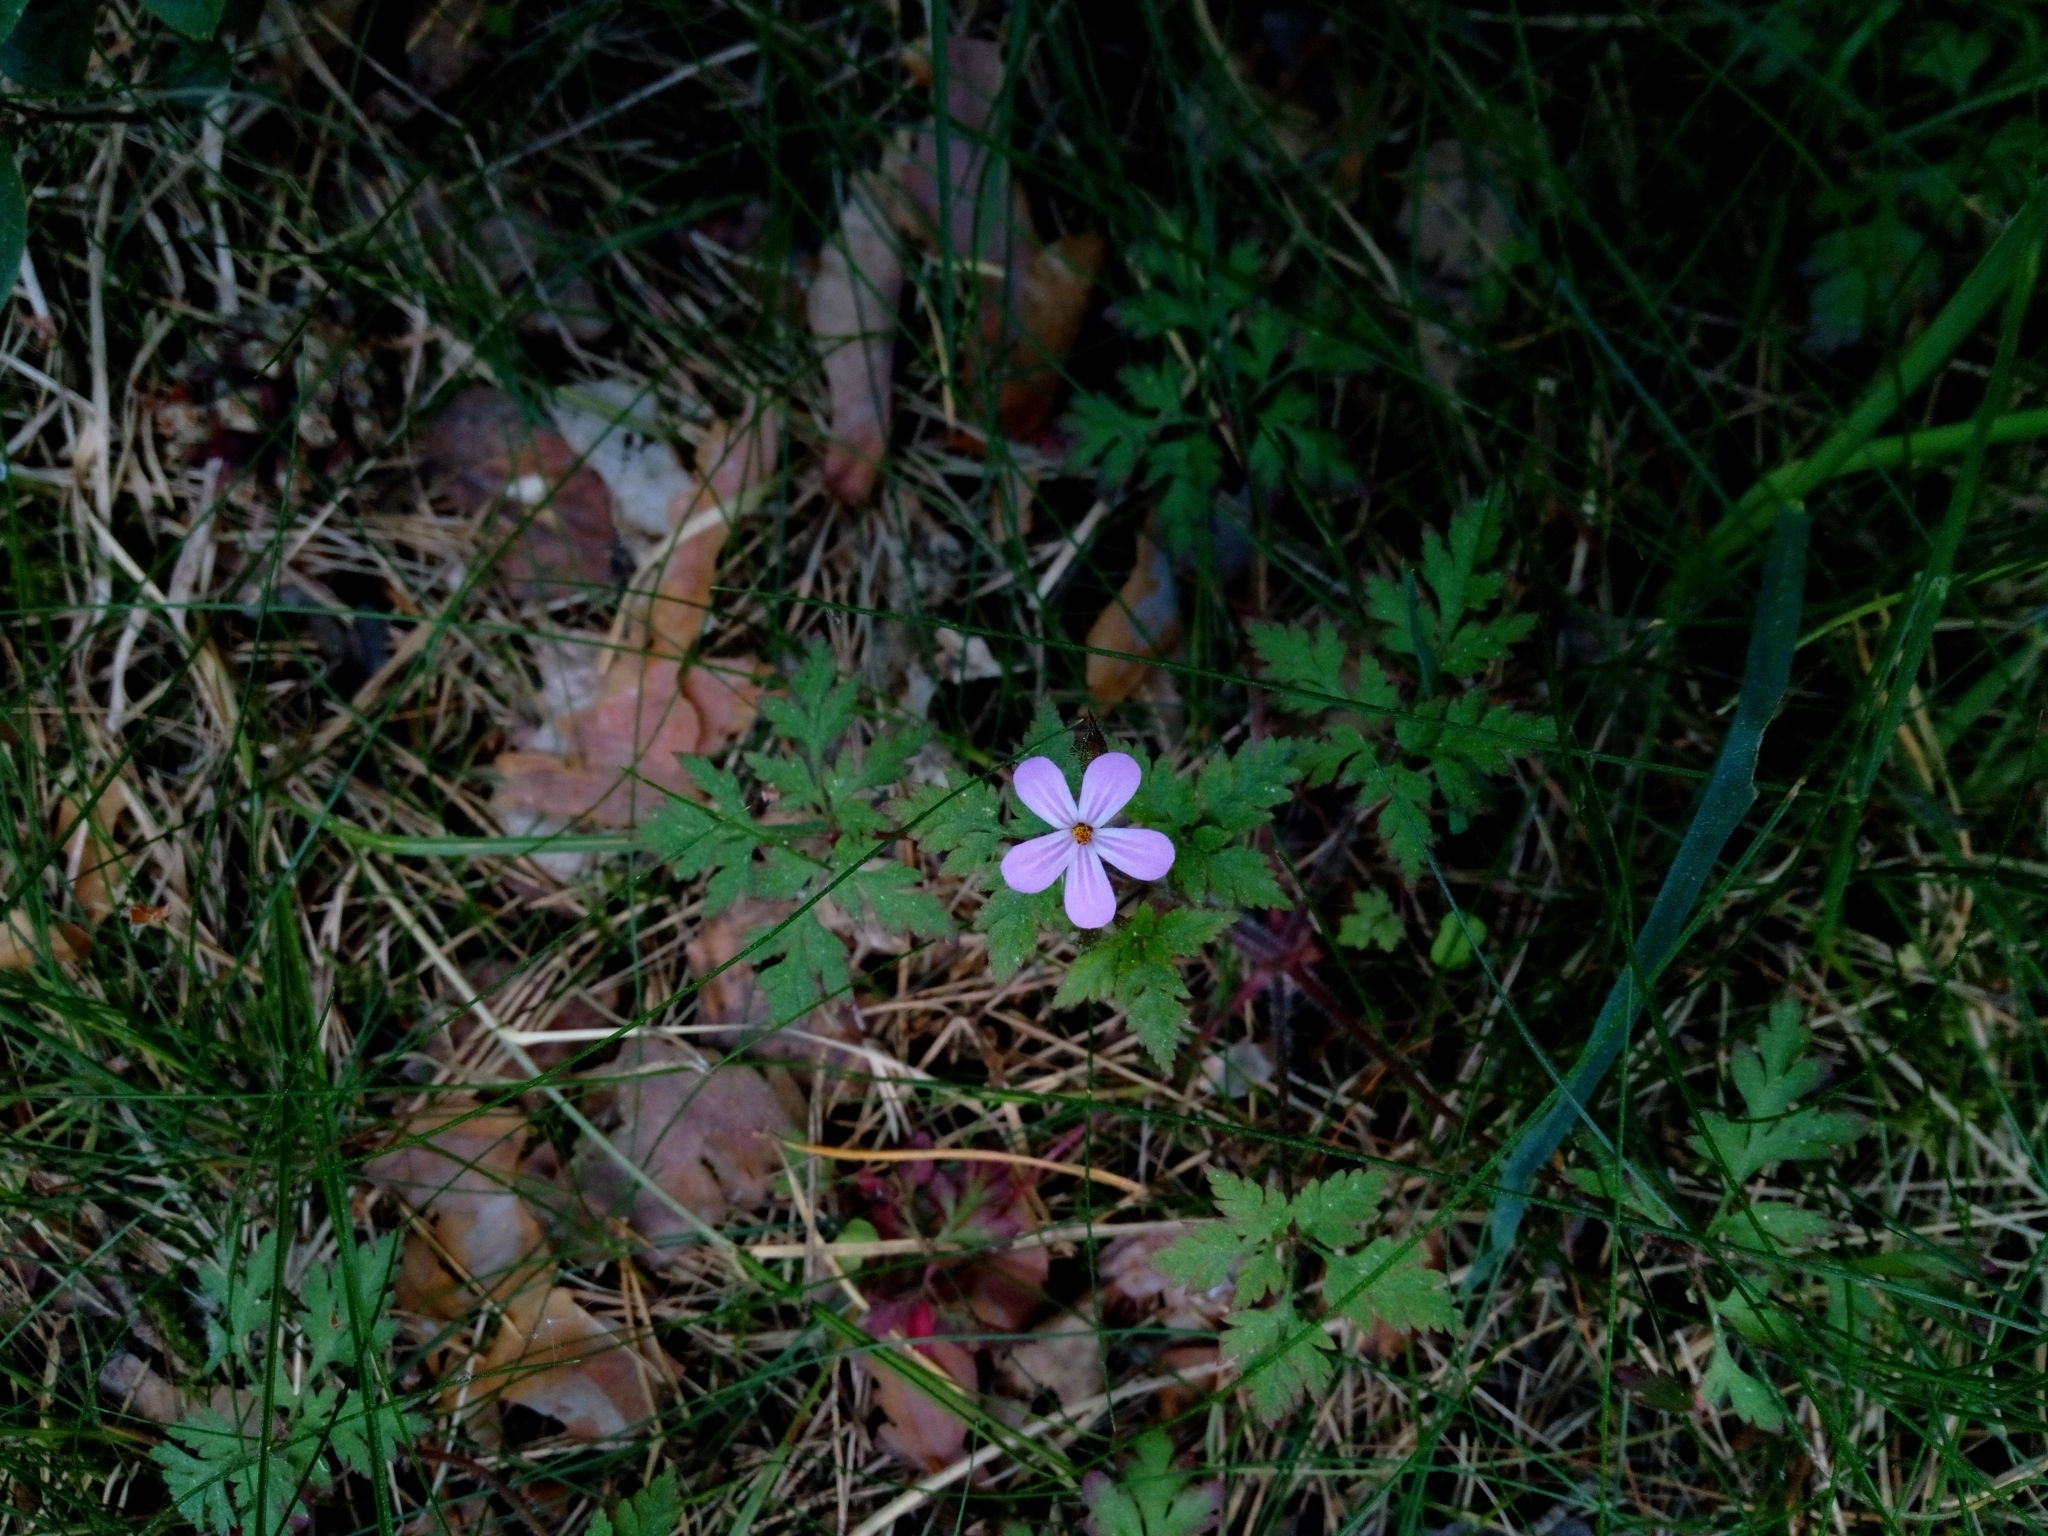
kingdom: Plantae
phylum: Tracheophyta
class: Magnoliopsida
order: Geraniales
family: Geraniaceae
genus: Geranium
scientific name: Geranium robertianum
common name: Herb-robert
